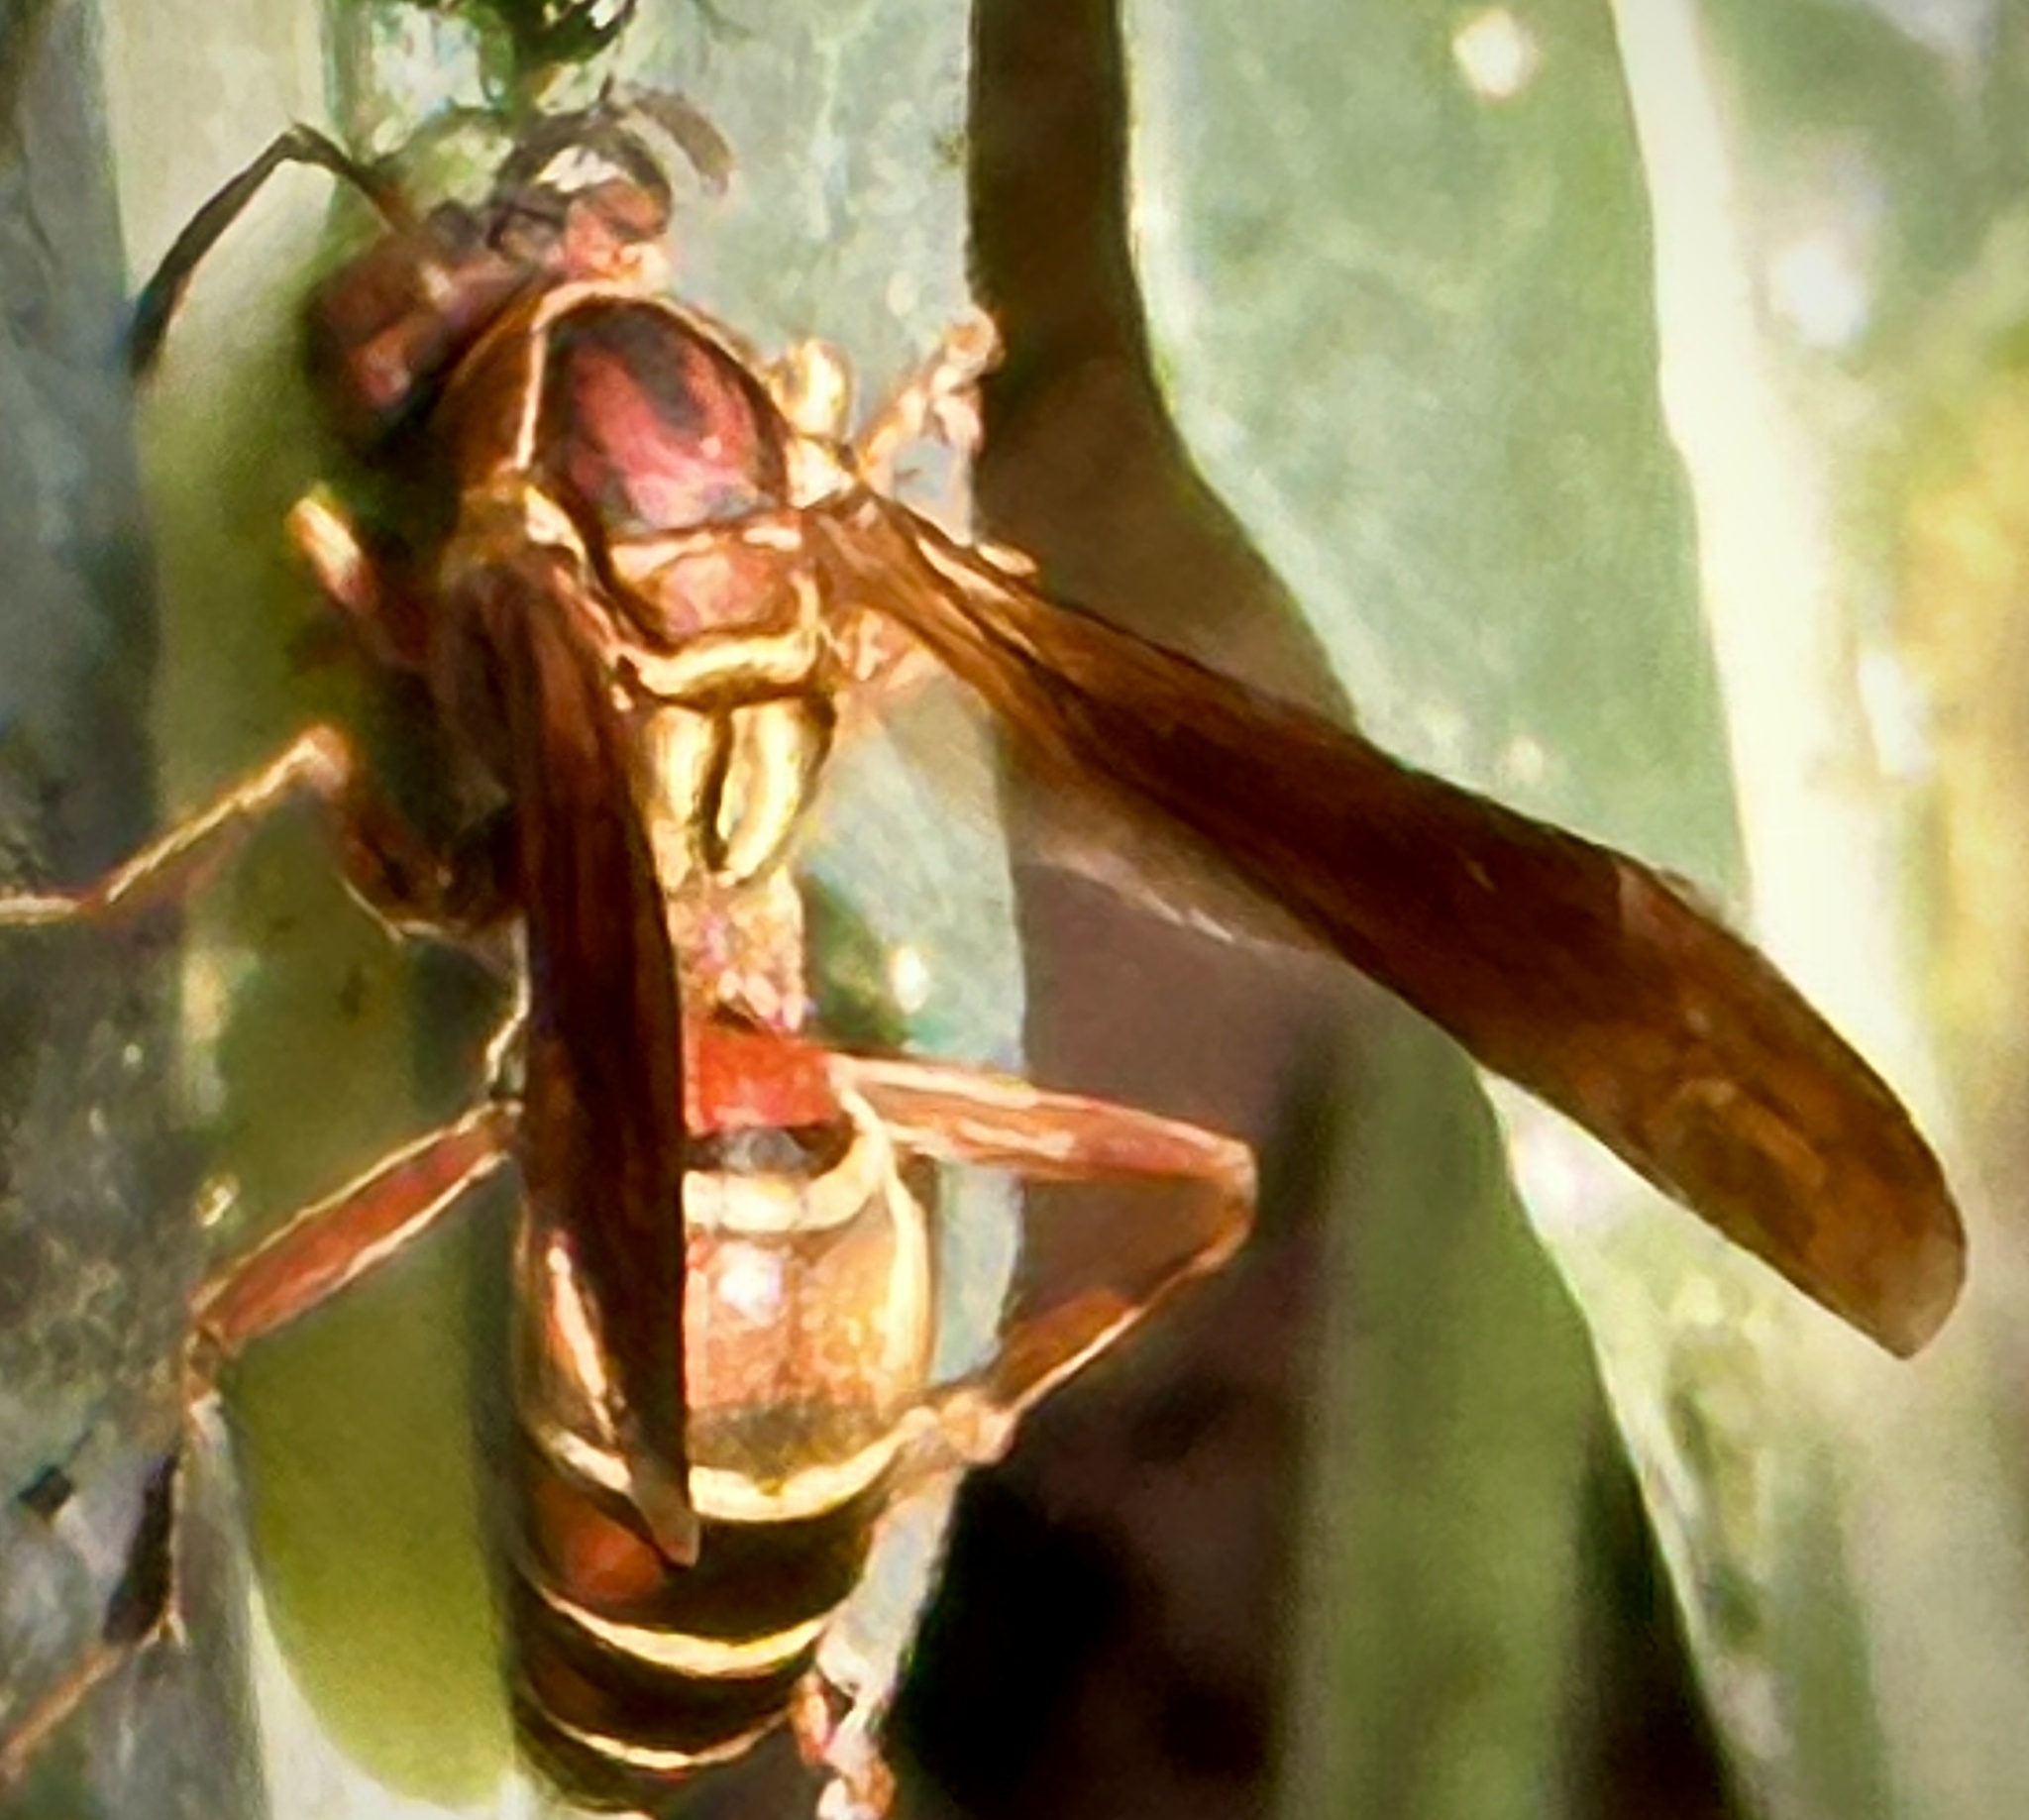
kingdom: Animalia
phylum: Arthropoda
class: Insecta
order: Hymenoptera
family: Eumenidae
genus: Polistes
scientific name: Polistes fuscatus
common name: Dark paper wasp
